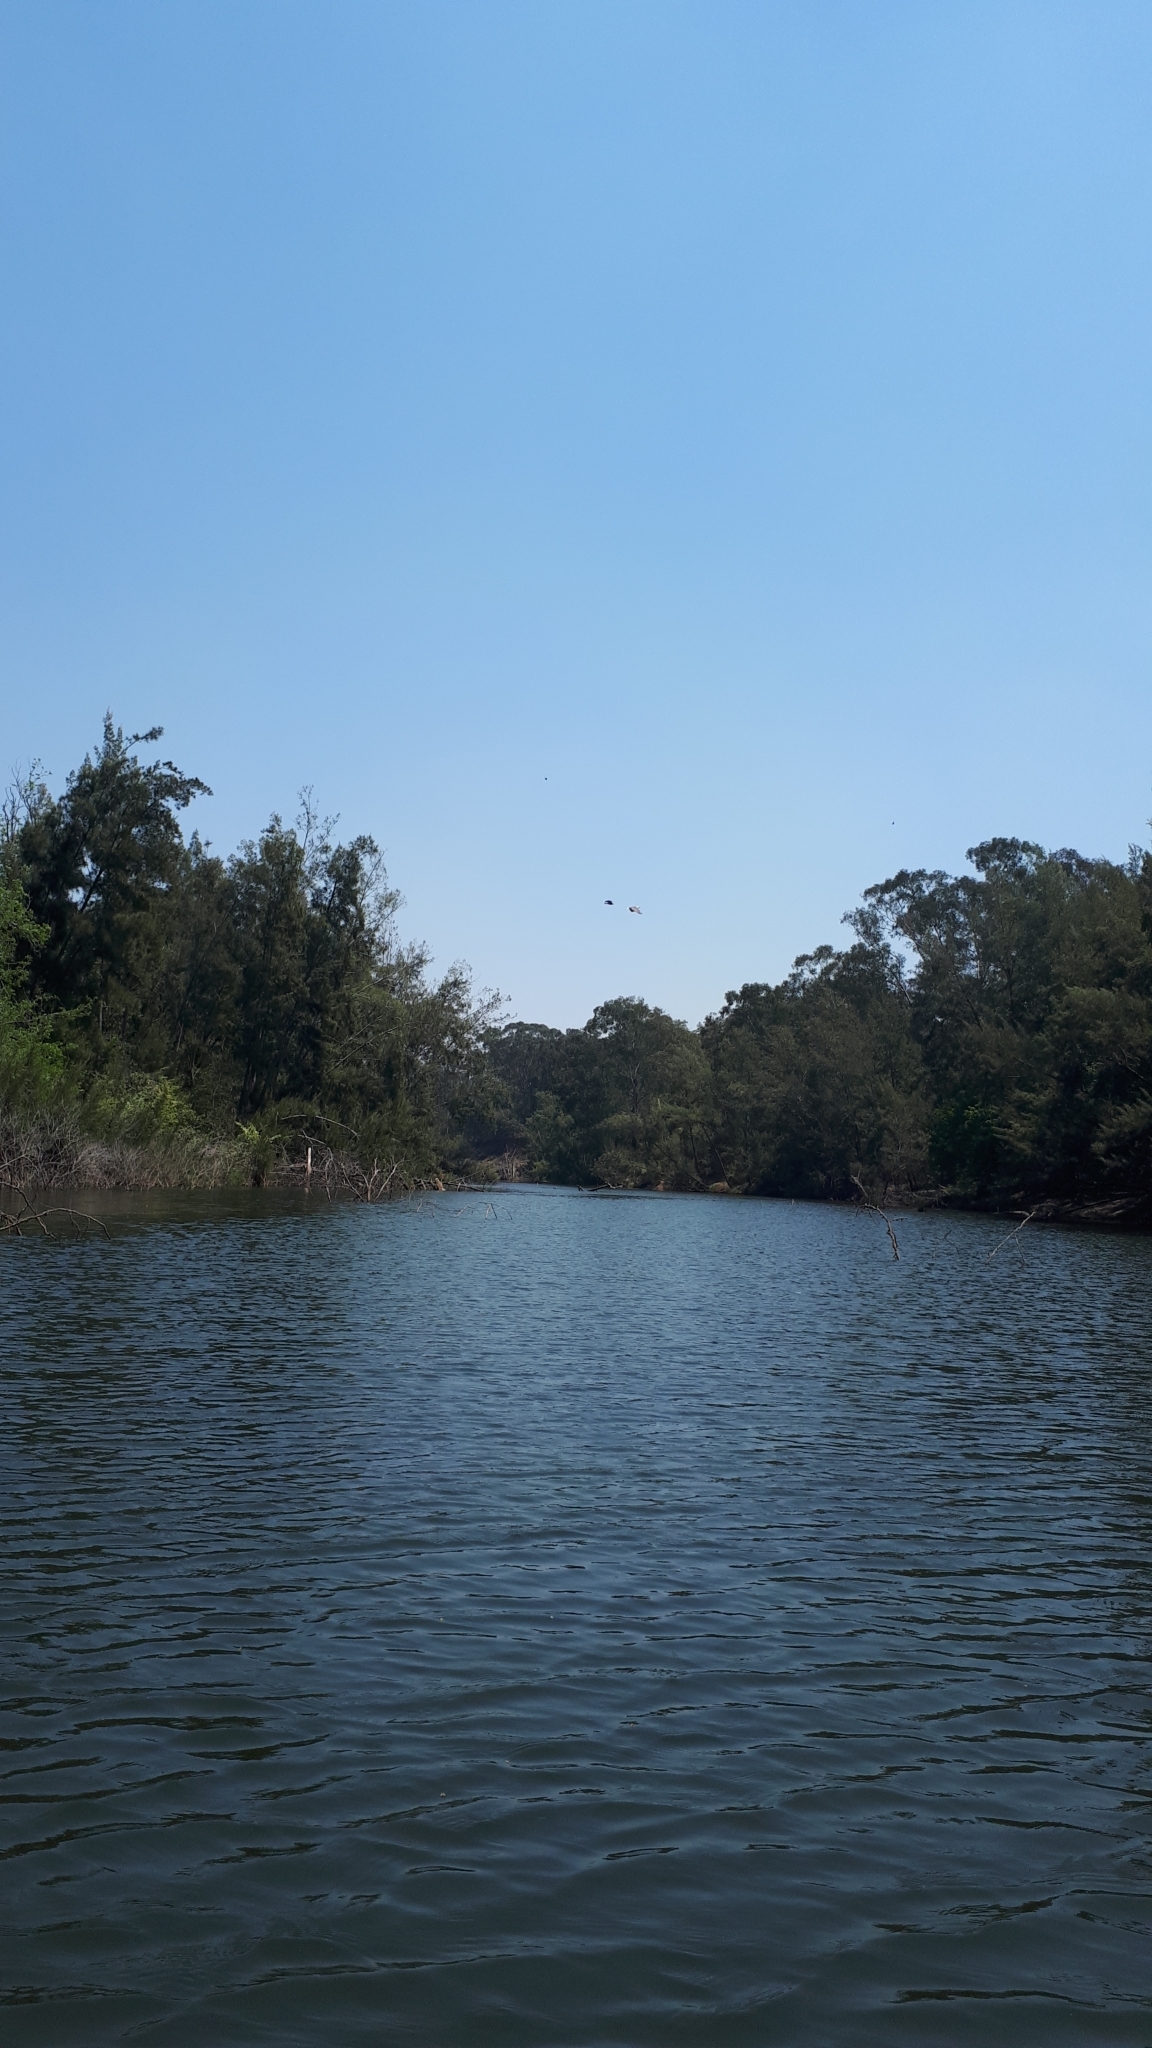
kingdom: Animalia
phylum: Chordata
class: Aves
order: Accipitriformes
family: Accipitridae
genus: Haliaeetus
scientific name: Haliaeetus leucogaster
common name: White-bellied sea eagle
